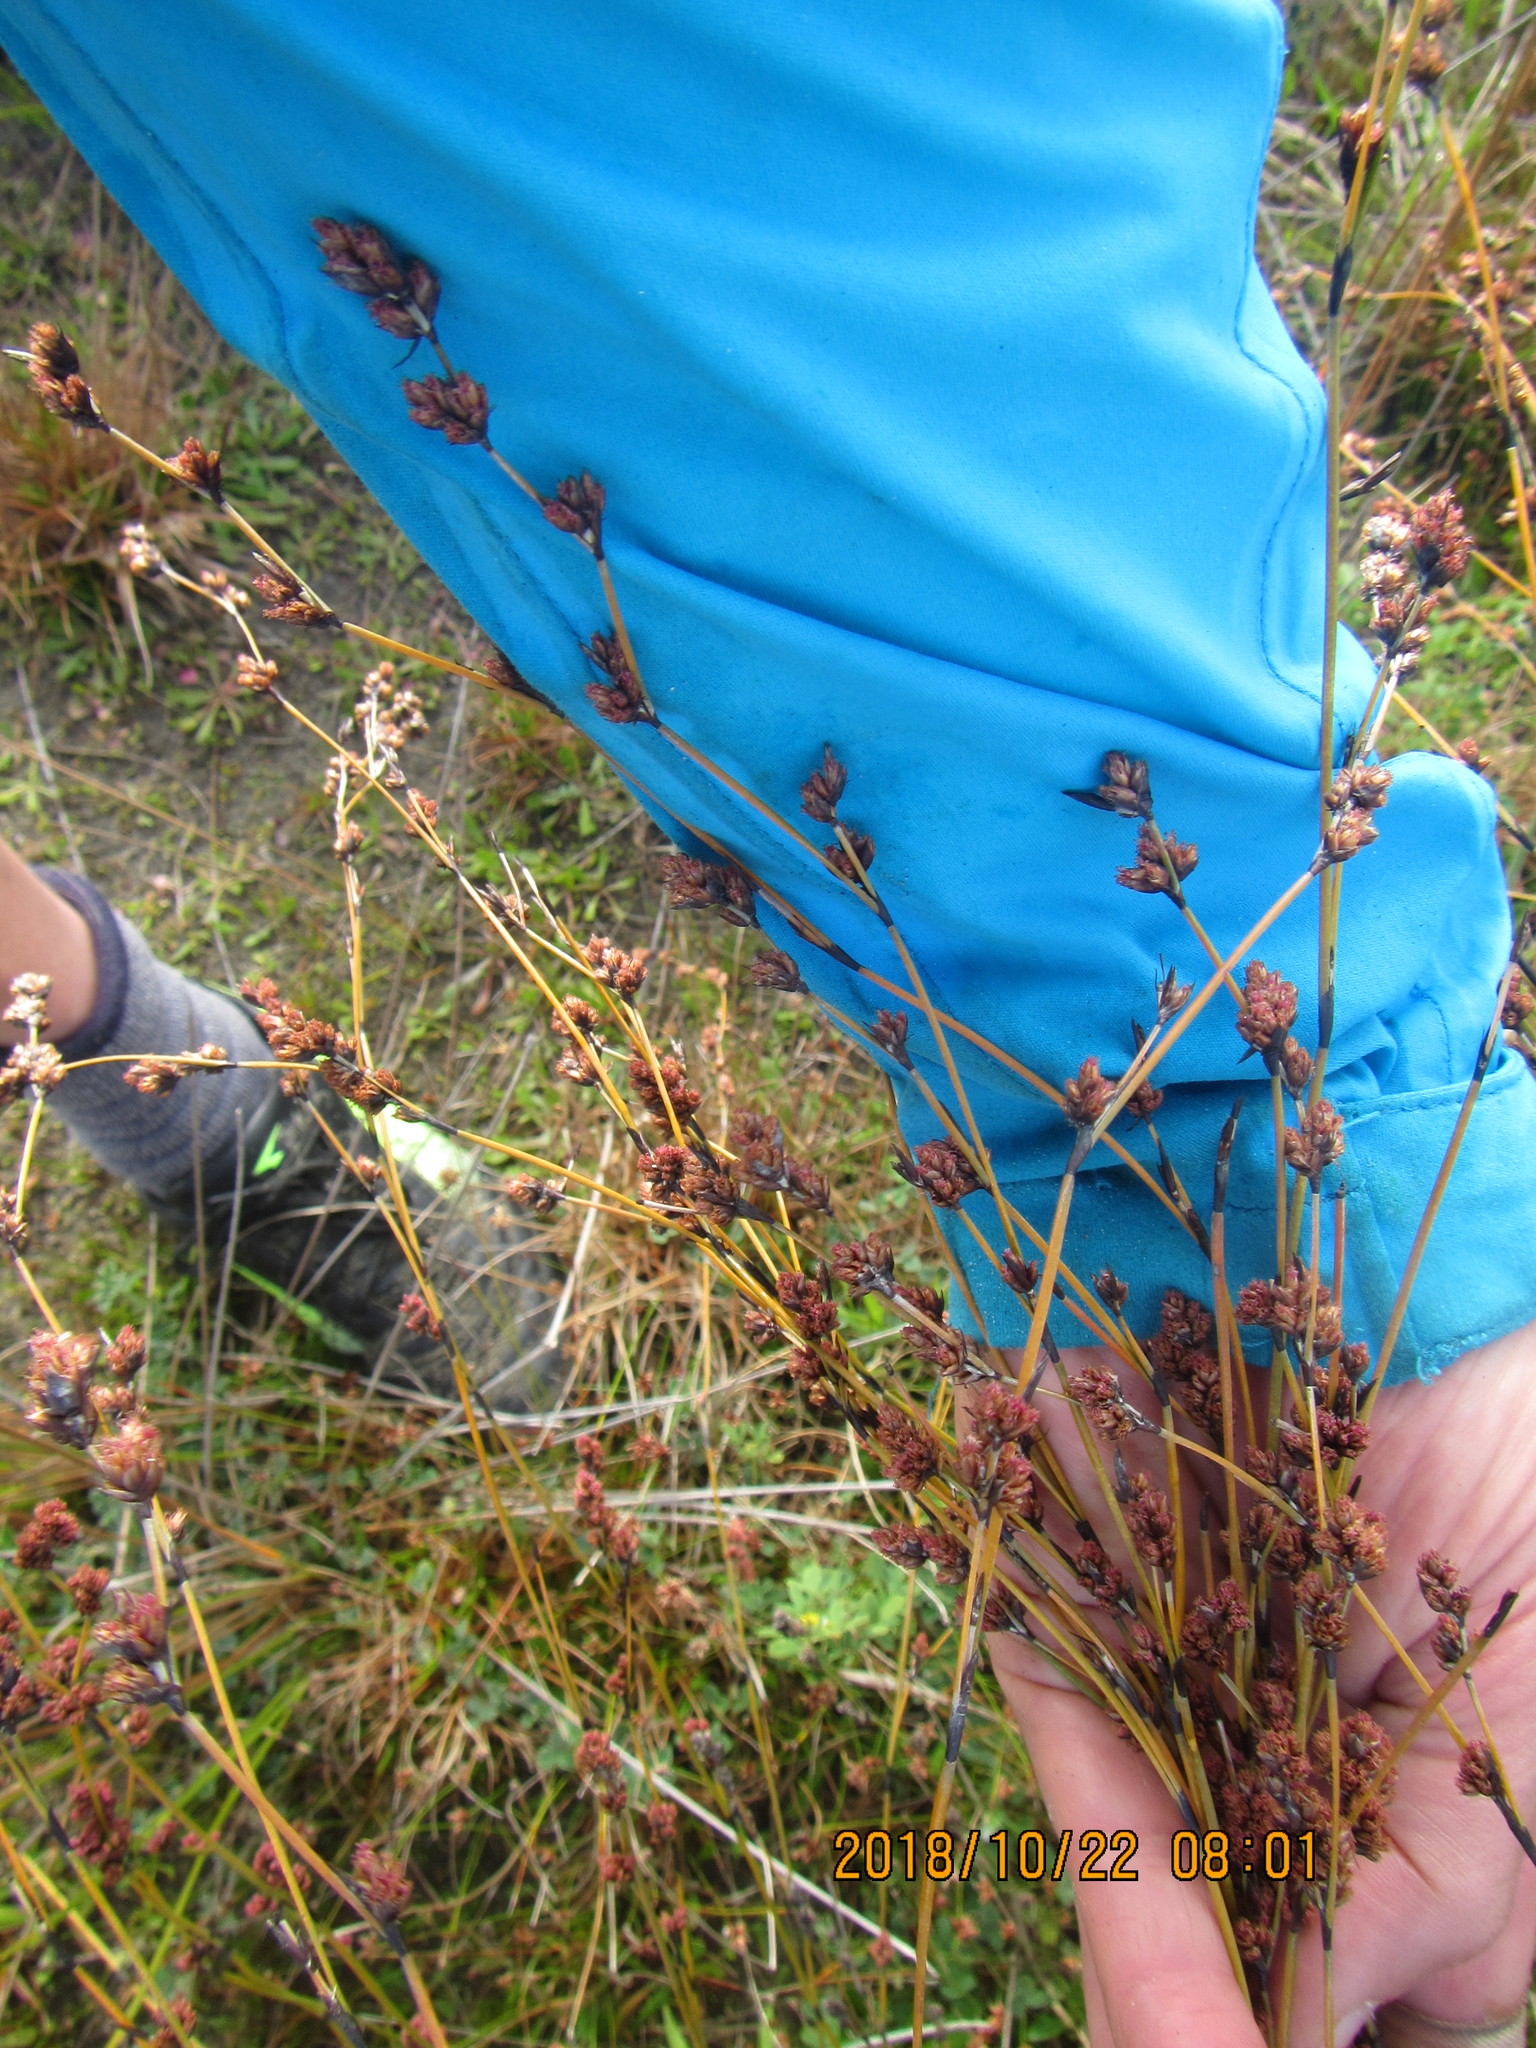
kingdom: Plantae
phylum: Tracheophyta
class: Liliopsida
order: Poales
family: Restionaceae
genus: Apodasmia
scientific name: Apodasmia similis
